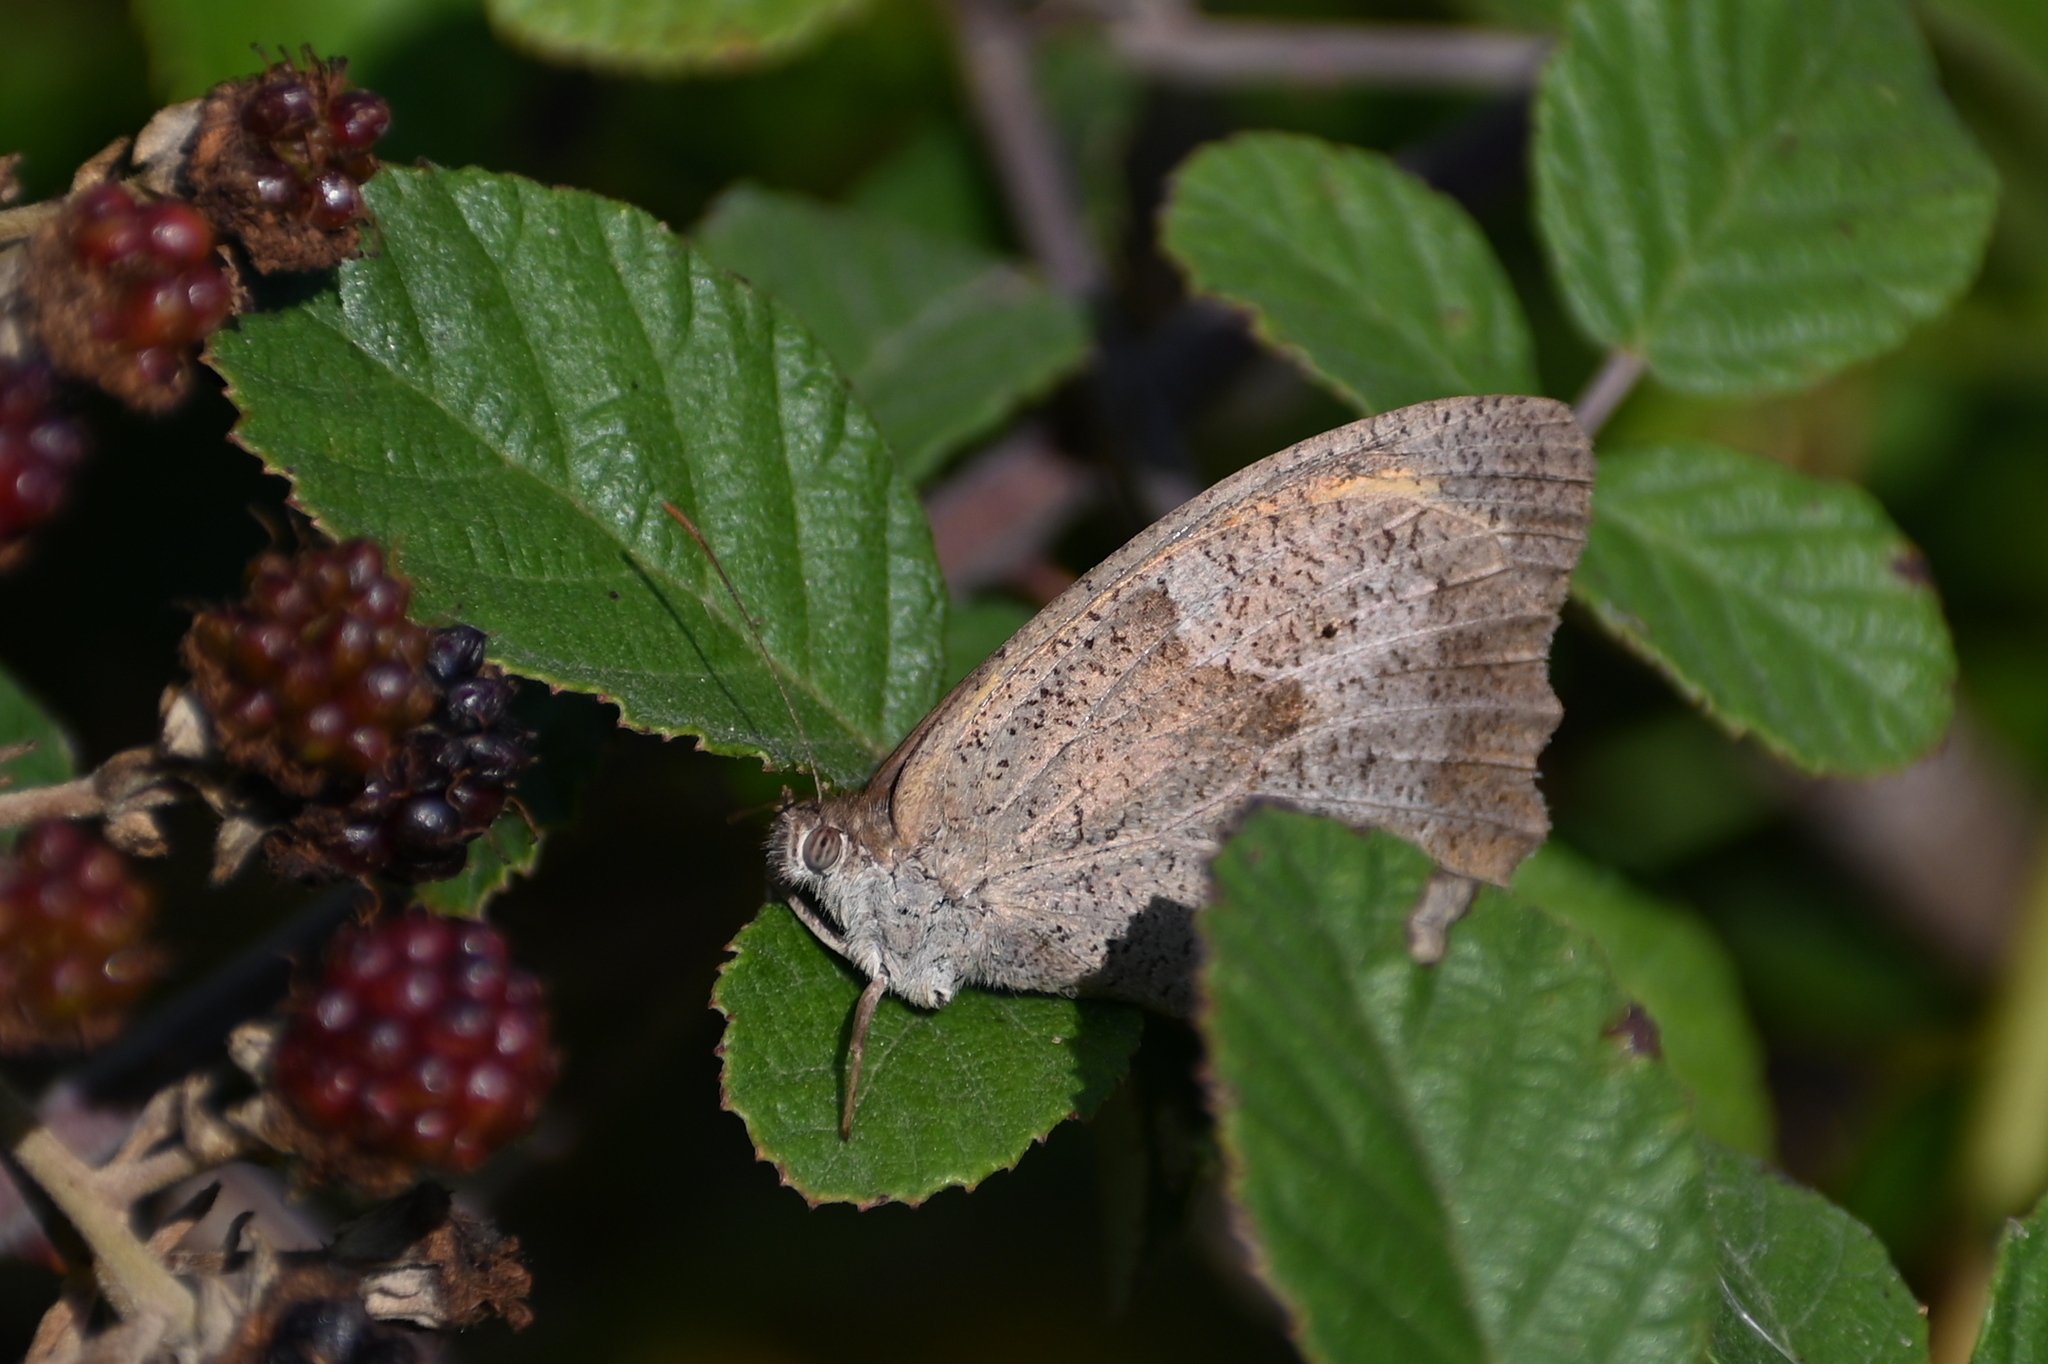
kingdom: Animalia
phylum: Arthropoda
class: Insecta
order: Lepidoptera
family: Nymphalidae
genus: Maniola
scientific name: Maniola jurtina
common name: Meadow brown
